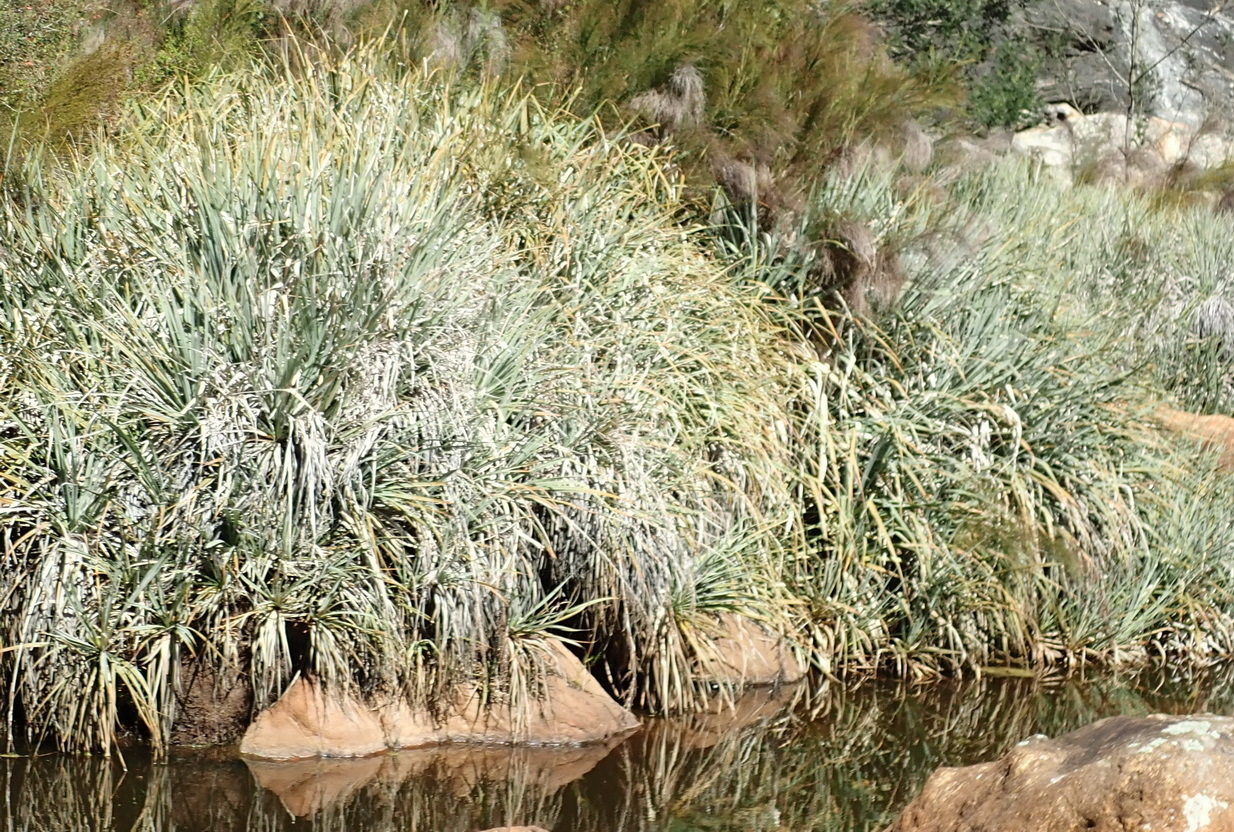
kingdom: Plantae
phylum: Tracheophyta
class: Liliopsida
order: Poales
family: Thurniaceae
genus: Prionium
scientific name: Prionium serratum
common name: Palmiet
